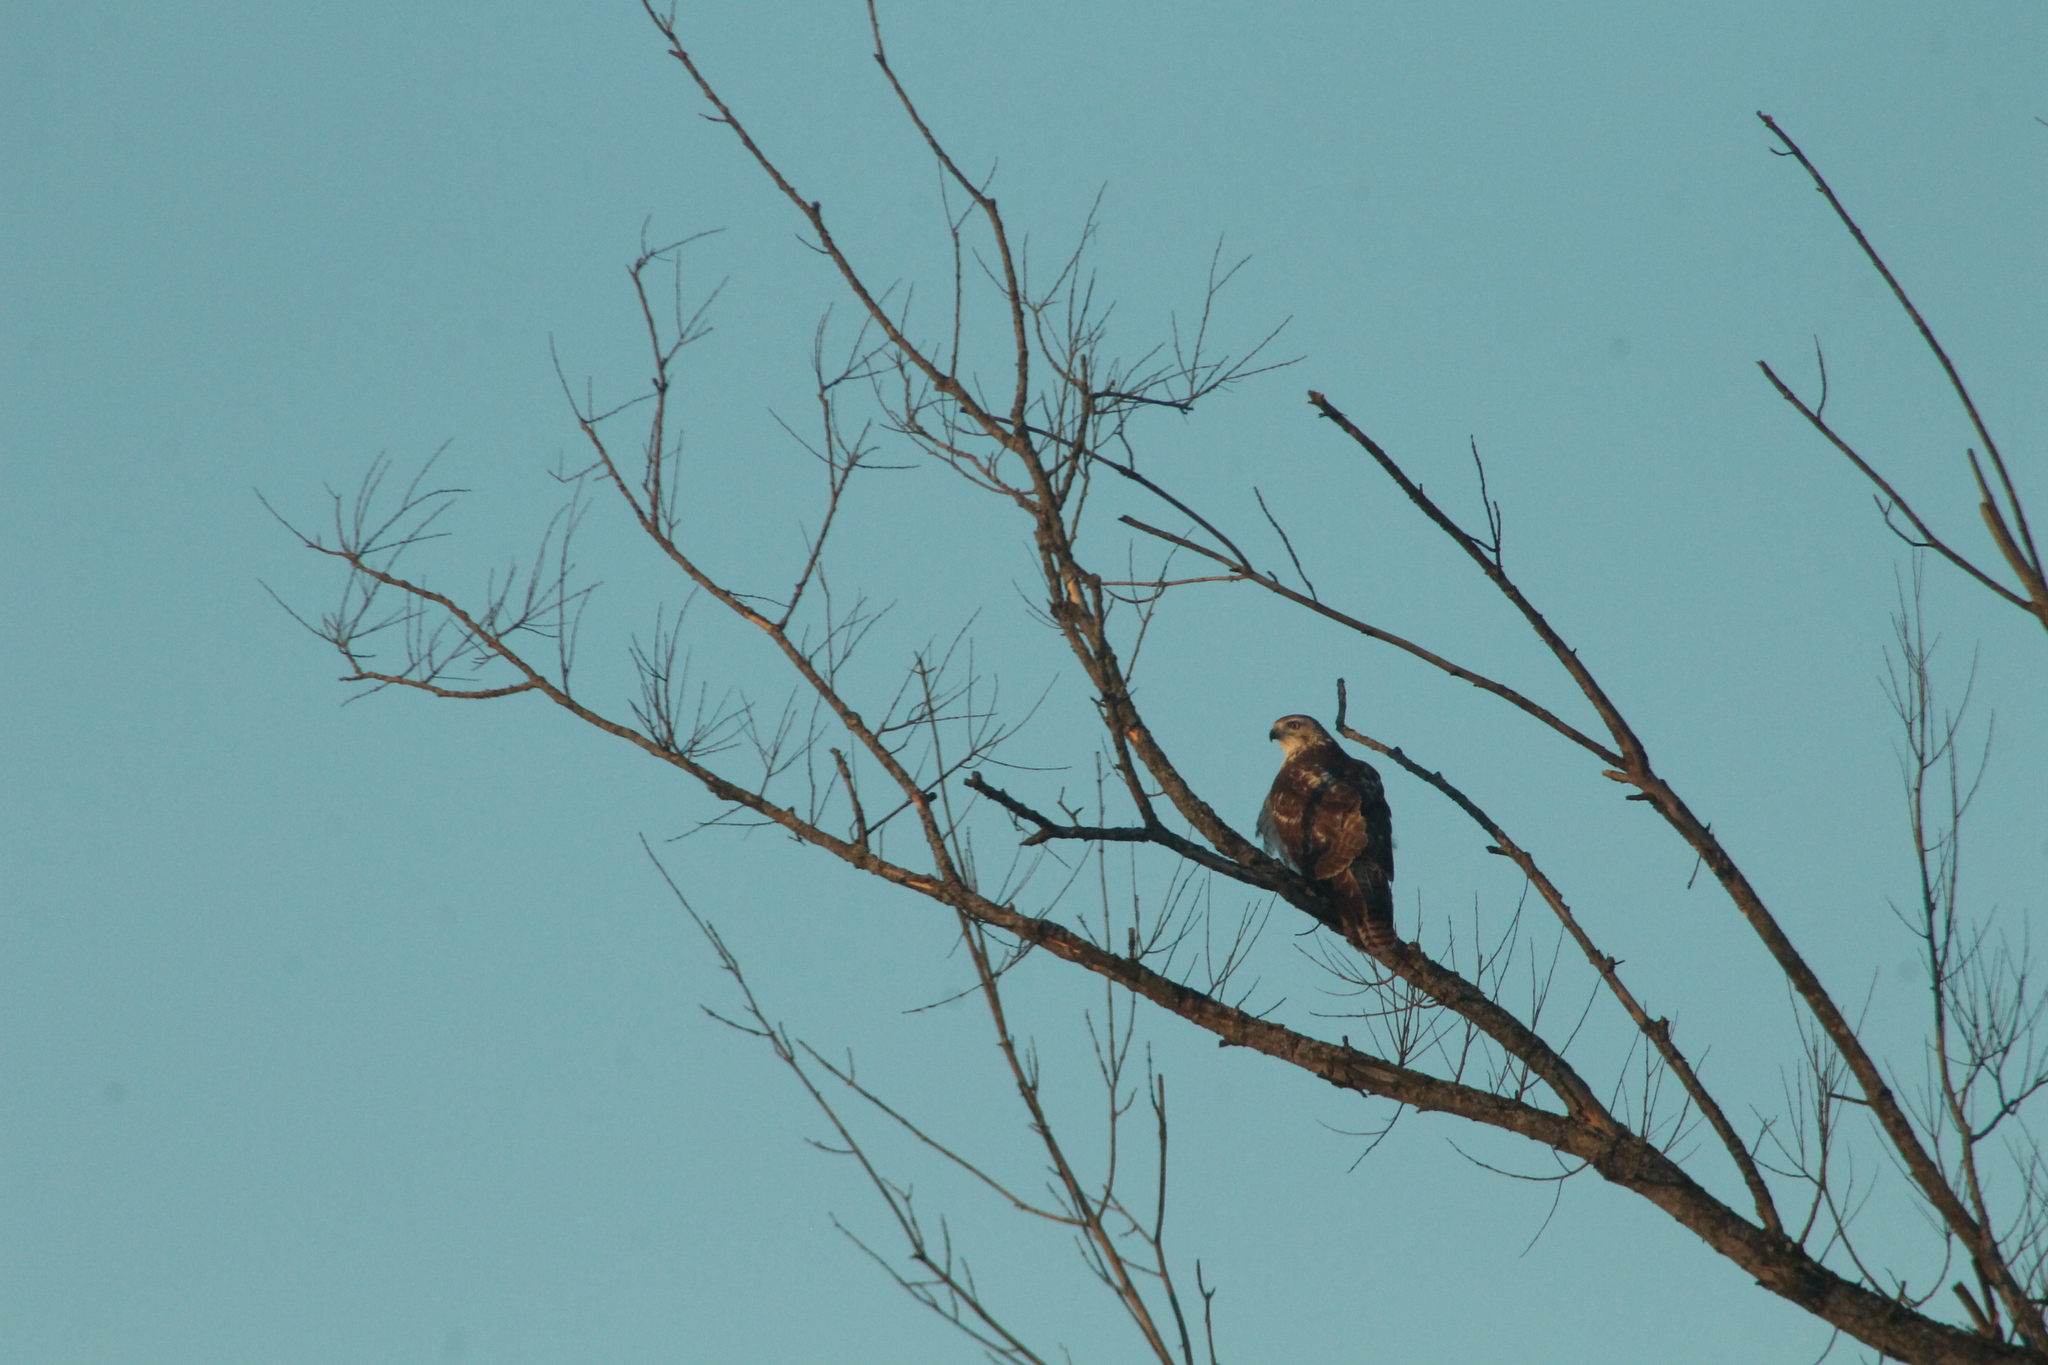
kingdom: Animalia
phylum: Chordata
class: Aves
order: Accipitriformes
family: Accipitridae
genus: Buteo
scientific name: Buteo jamaicensis
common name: Red-tailed hawk
